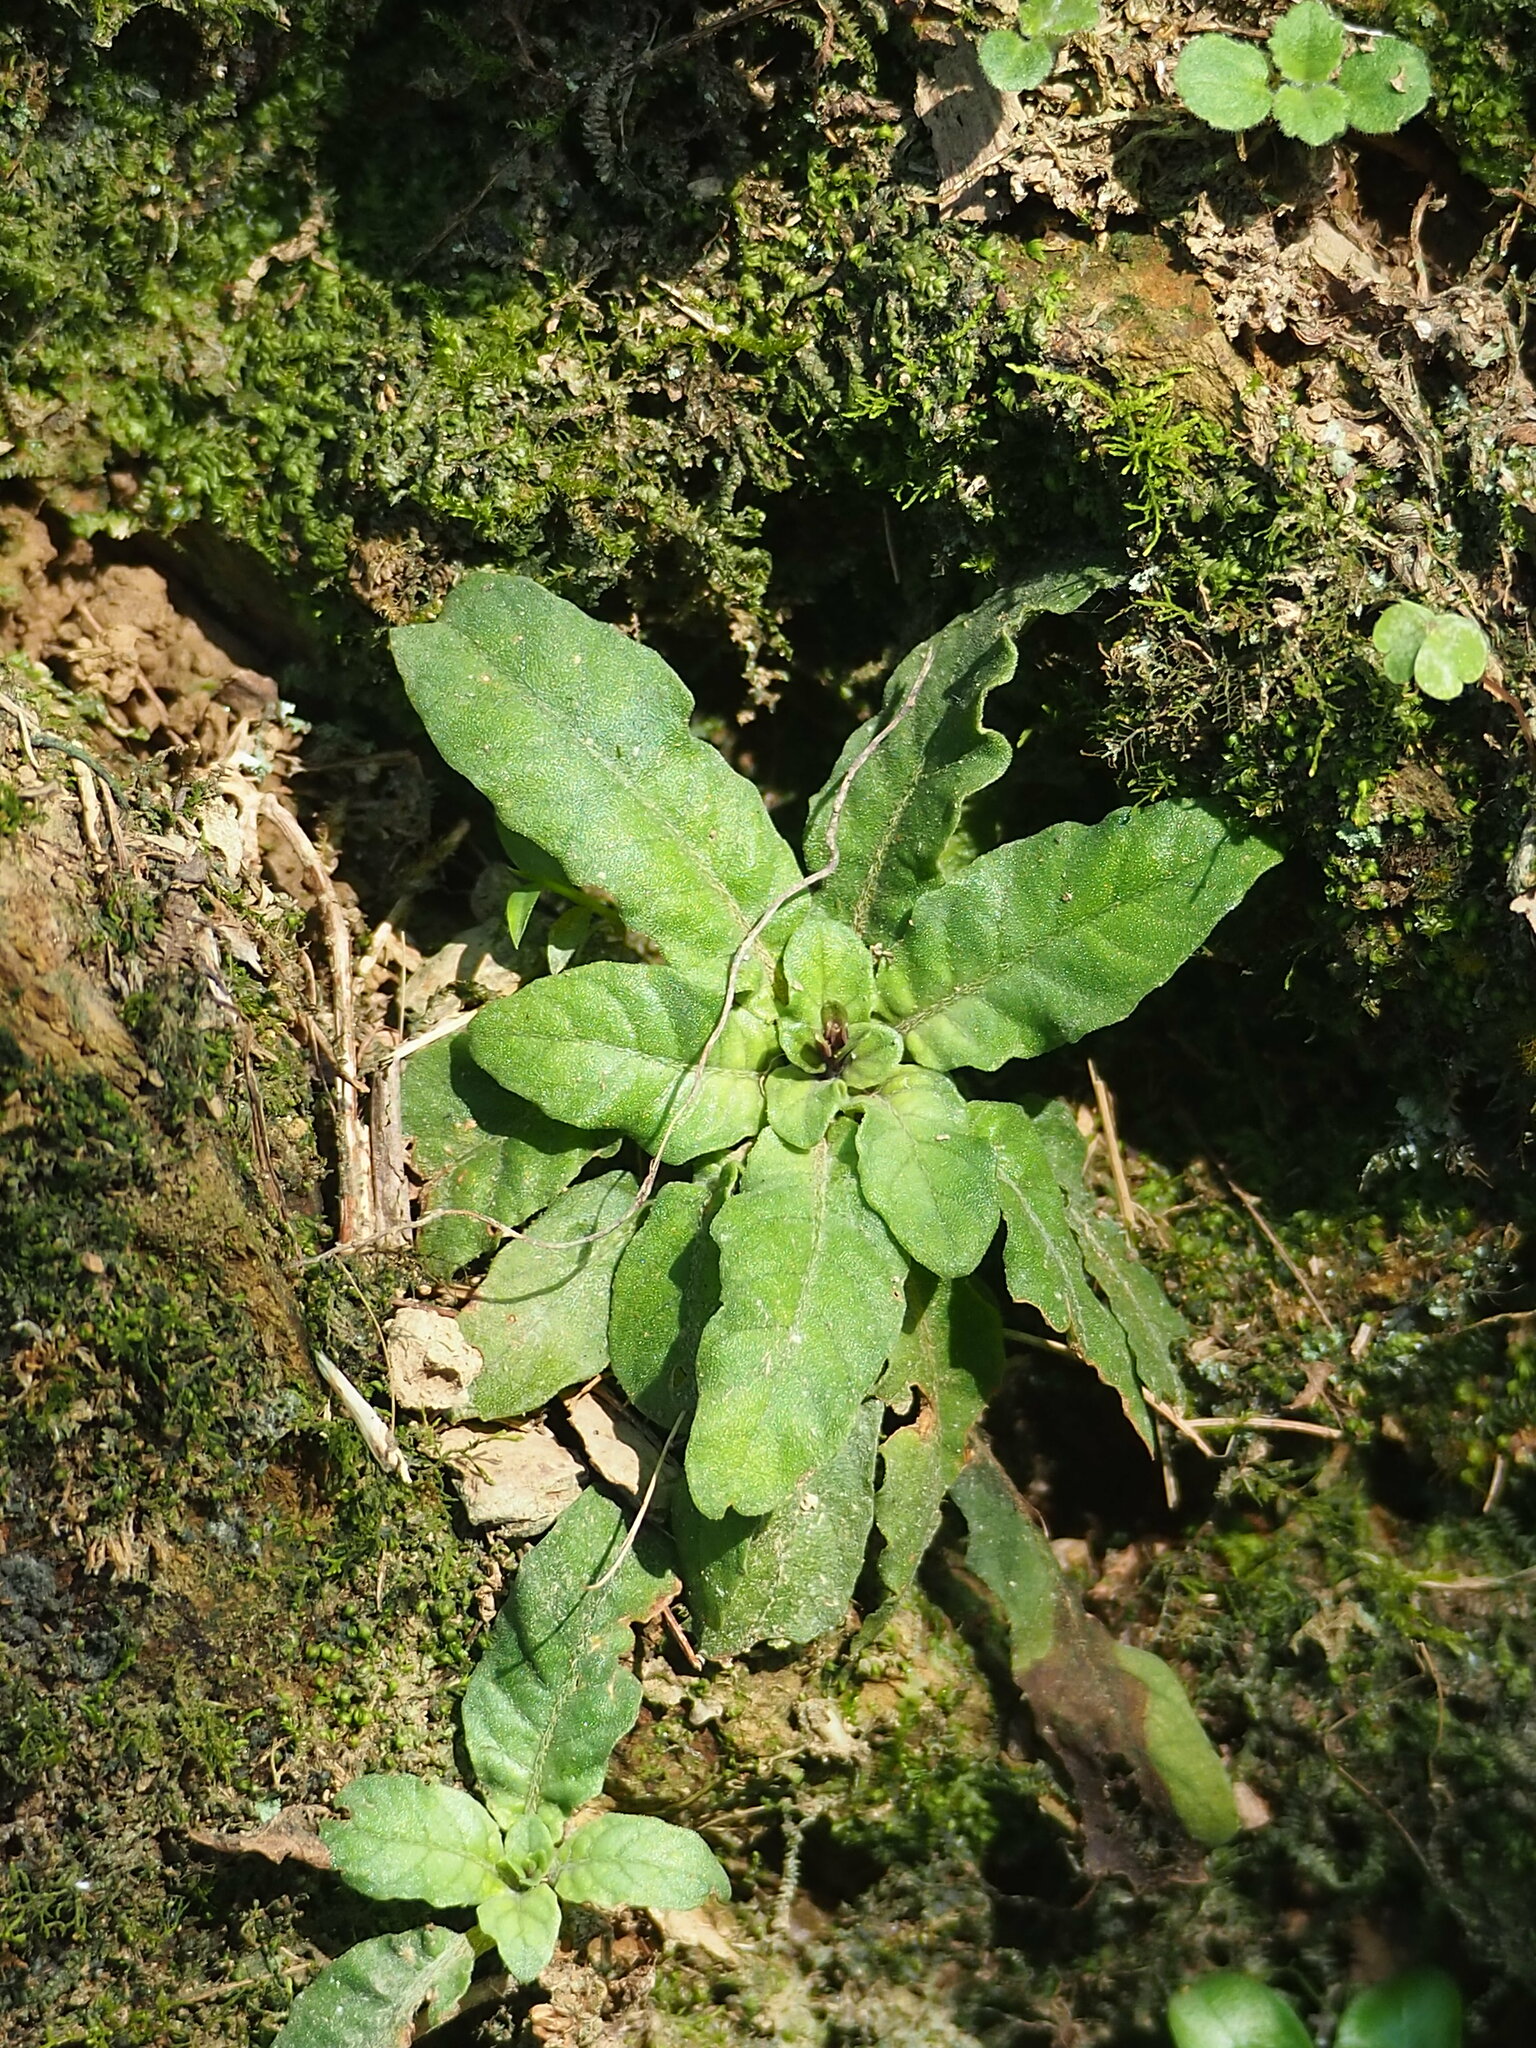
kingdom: Plantae
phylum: Tracheophyta
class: Magnoliopsida
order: Lamiales
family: Acanthaceae
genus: Staurogyne
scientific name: Staurogyne concinnula
